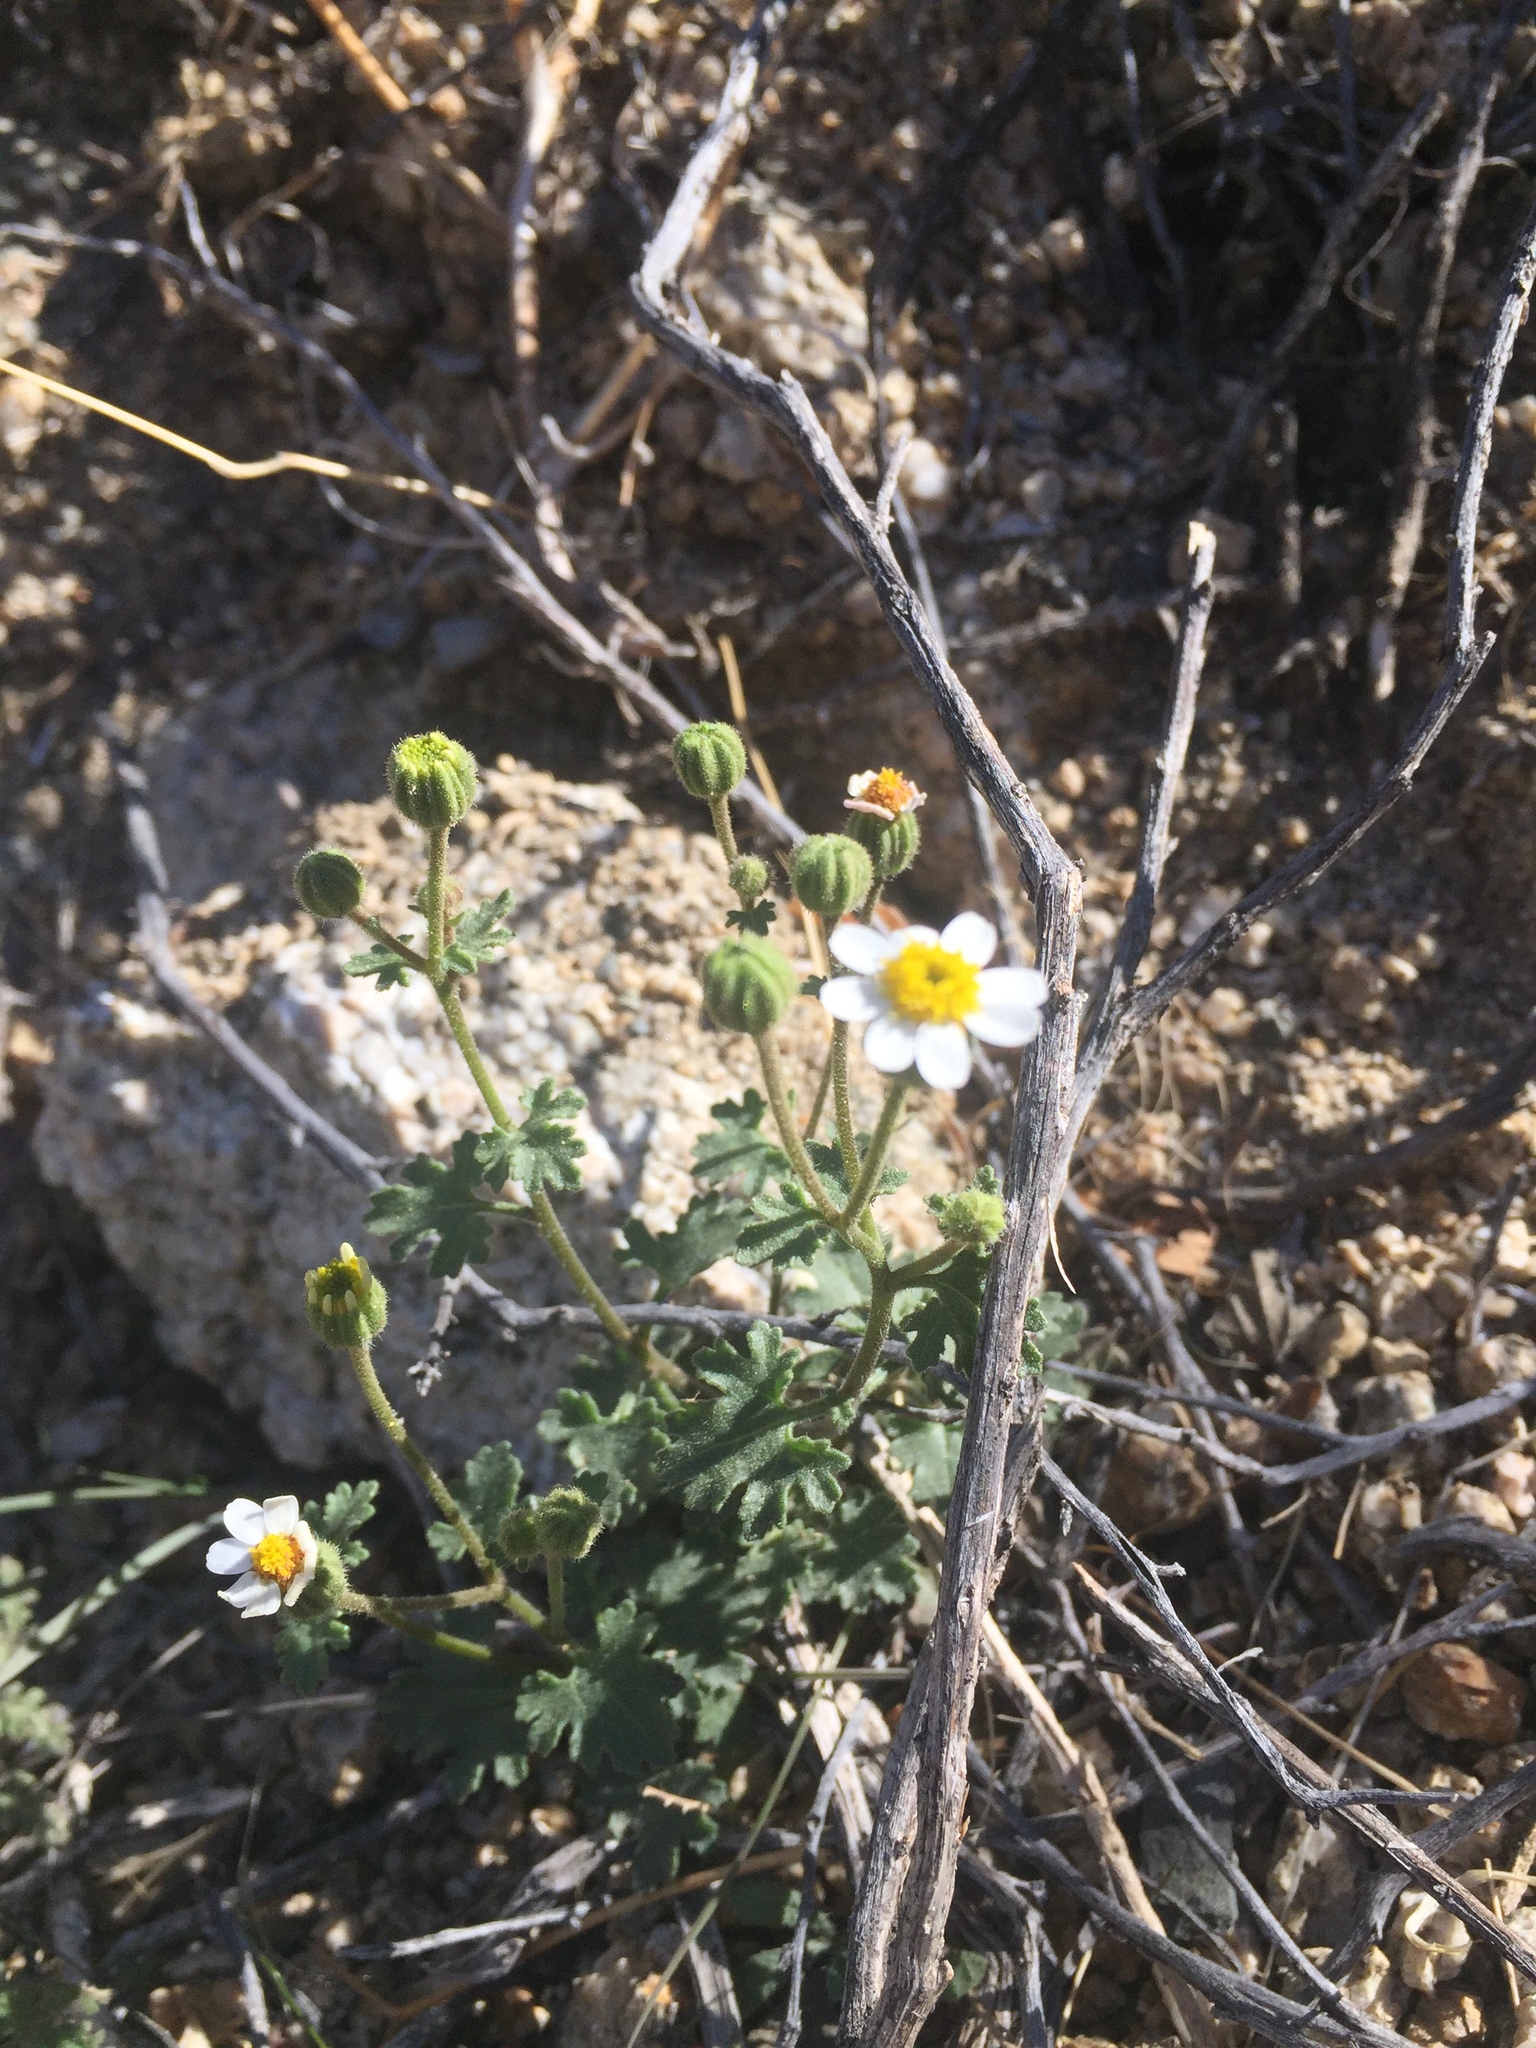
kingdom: Plantae
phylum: Tracheophyta
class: Magnoliopsida
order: Asterales
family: Asteraceae
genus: Laphamia
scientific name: Laphamia emoryi
